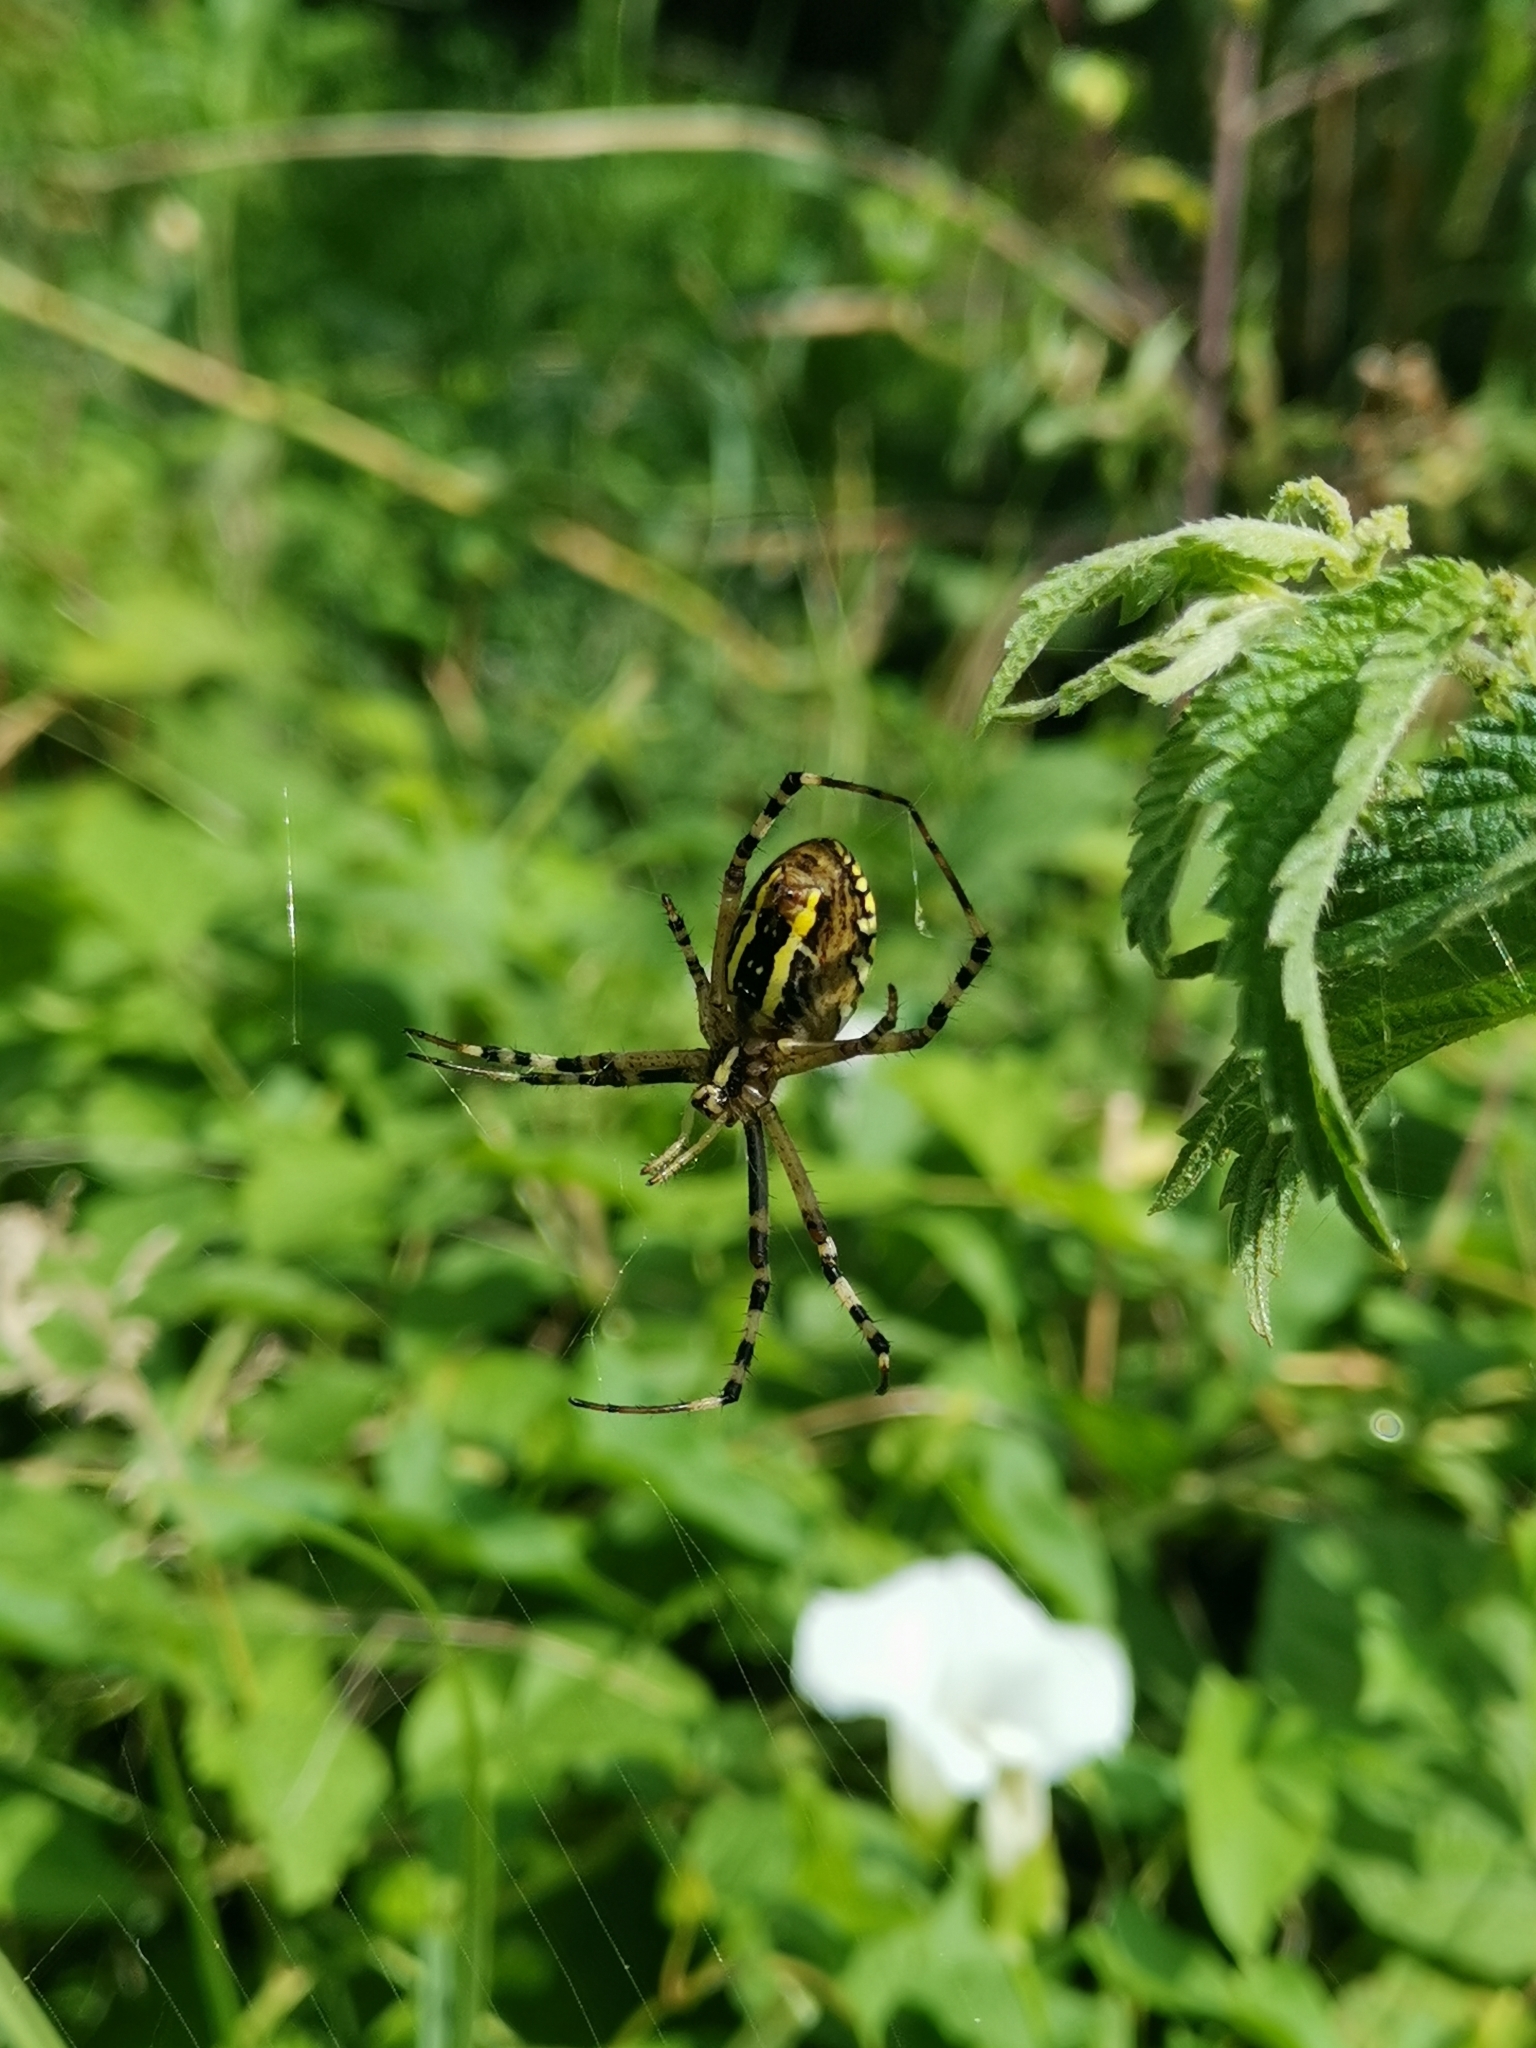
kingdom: Animalia
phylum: Arthropoda
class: Arachnida
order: Araneae
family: Araneidae
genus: Argiope
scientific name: Argiope bruennichi
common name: Wasp spider
